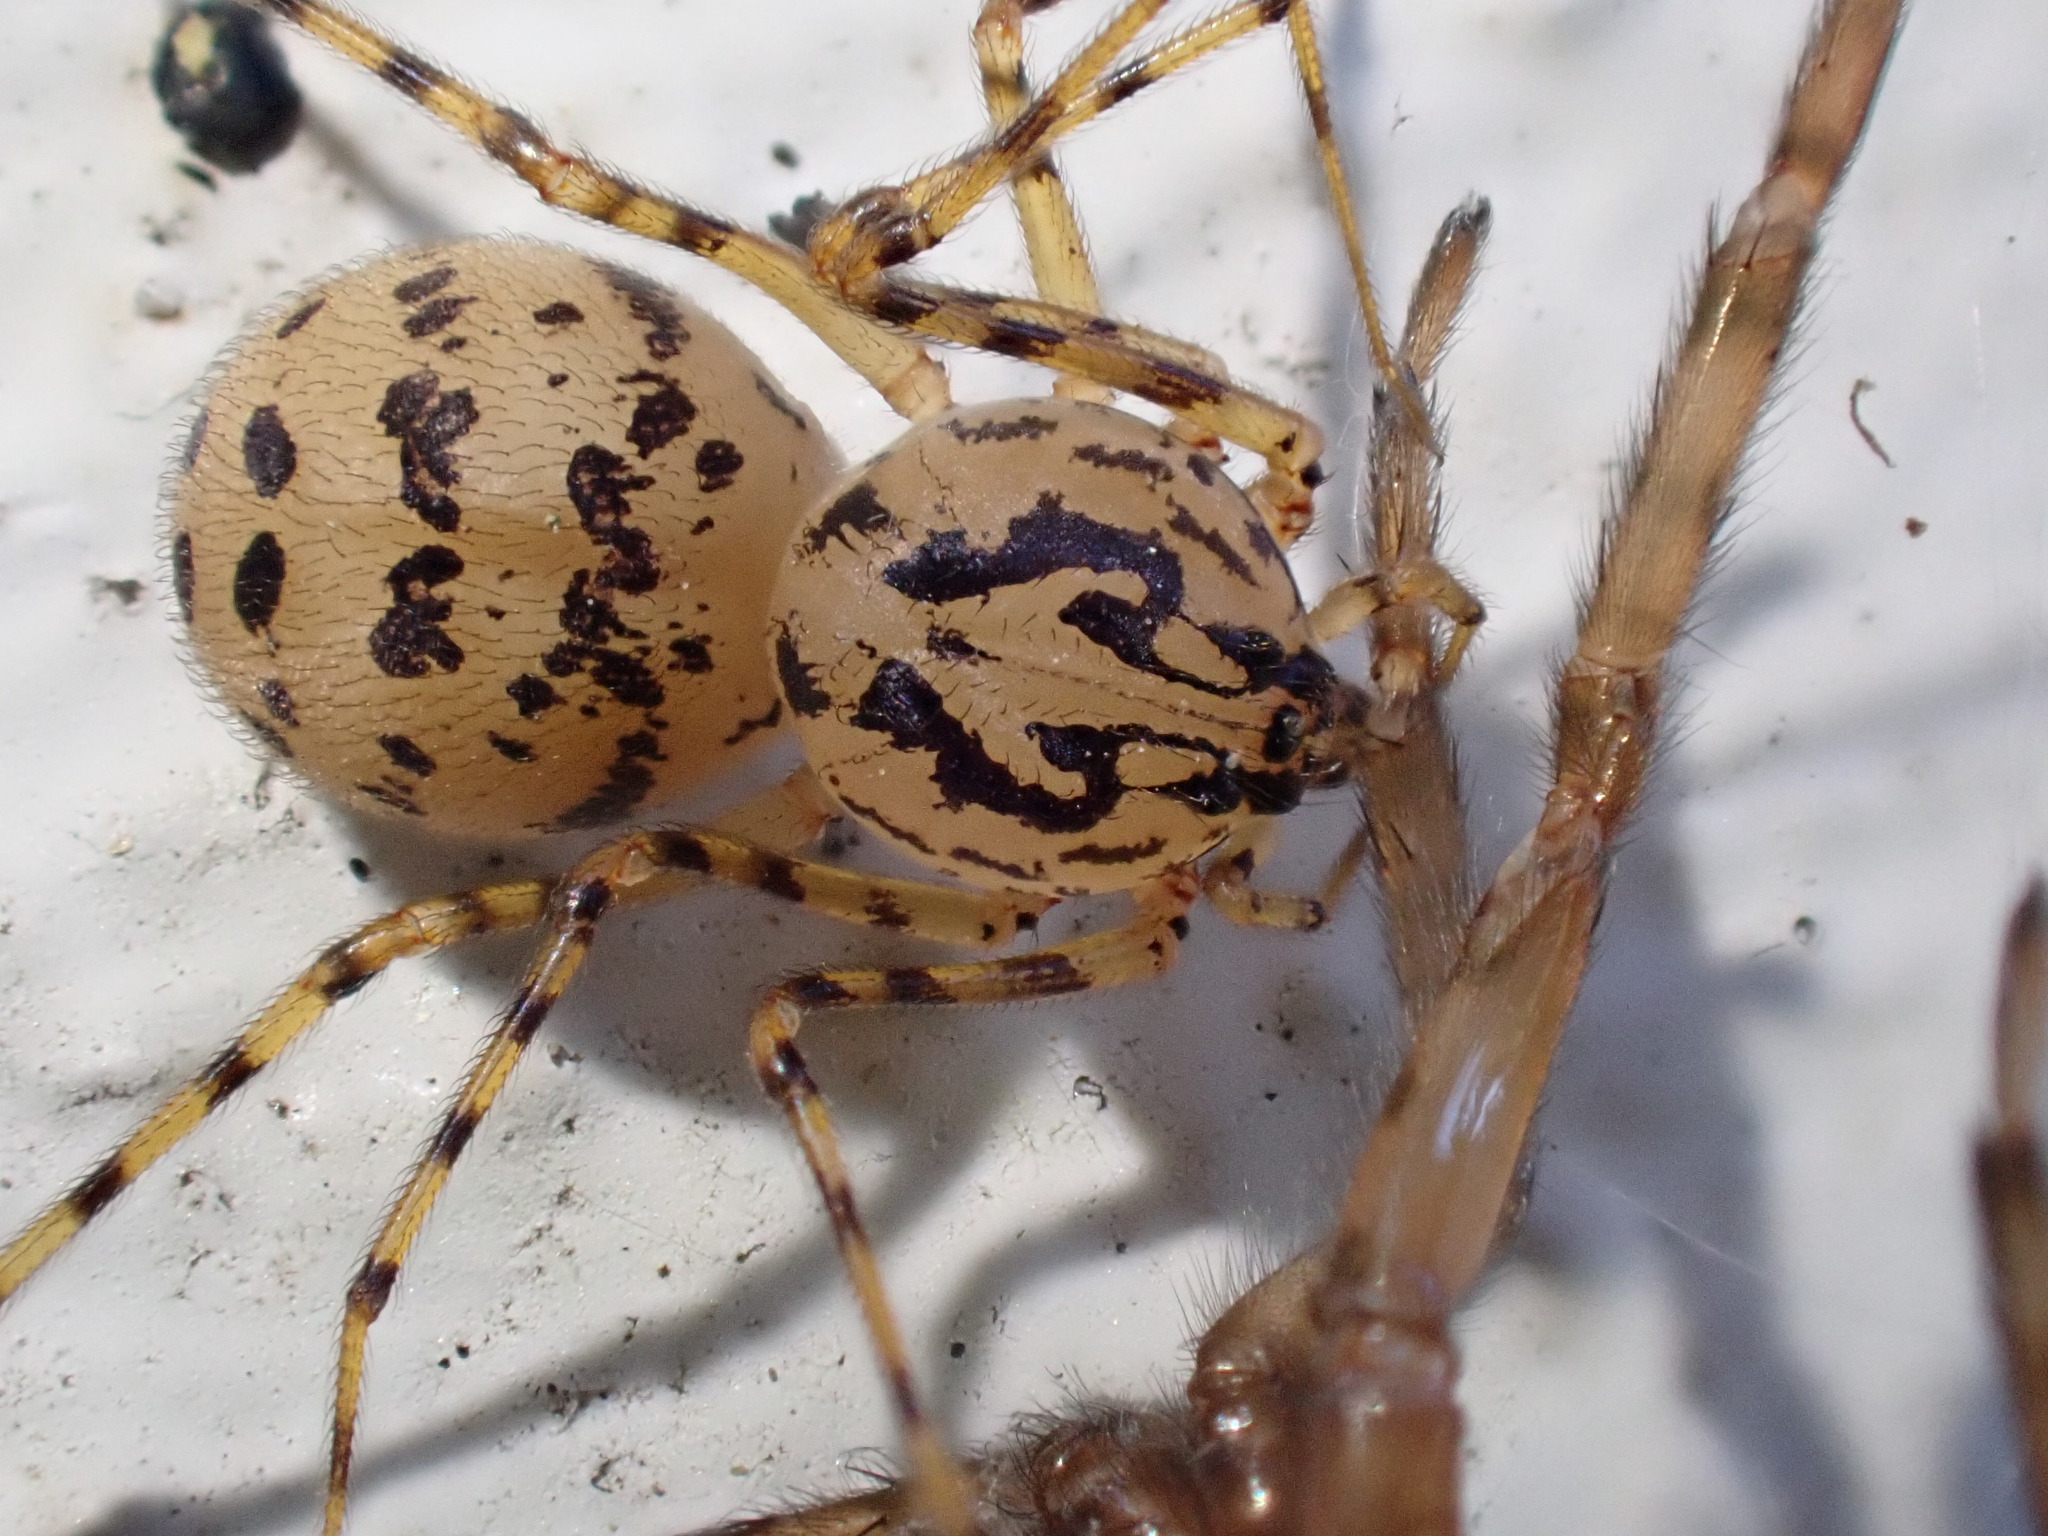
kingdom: Animalia
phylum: Arthropoda
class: Arachnida
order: Araneae
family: Scytodidae
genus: Scytodes
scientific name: Scytodes thoracica
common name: Spitting spider
